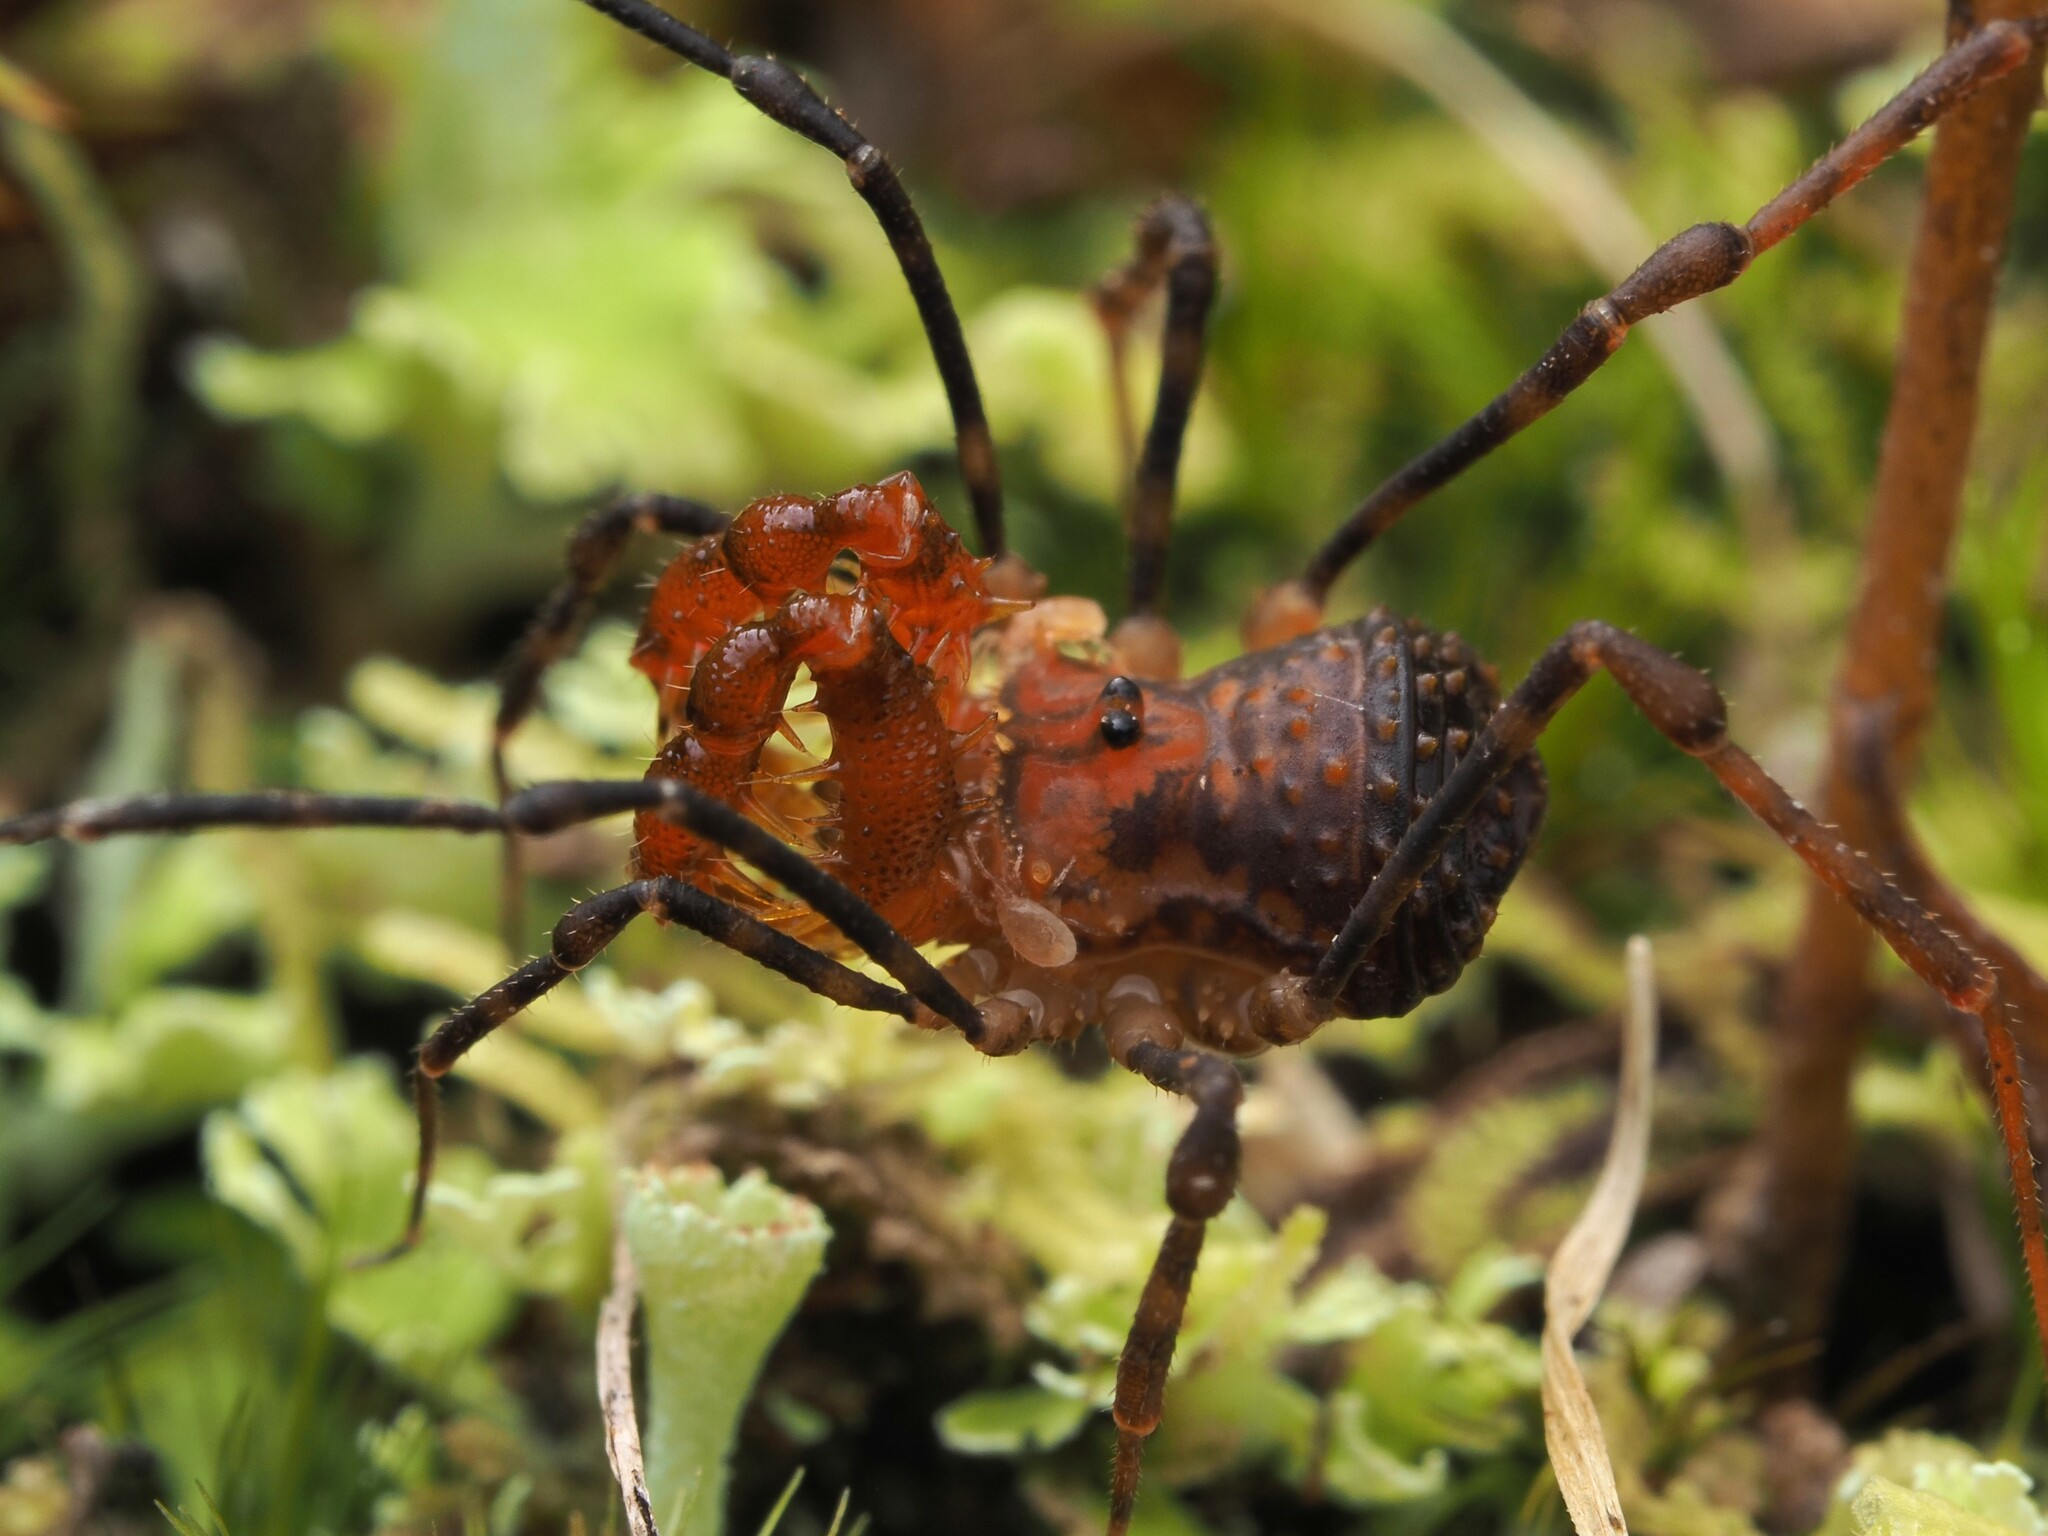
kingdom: Animalia
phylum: Arthropoda
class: Arachnida
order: Opiliones
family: Triaenonychidae
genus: Sorensenella
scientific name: Sorensenella prehensor
